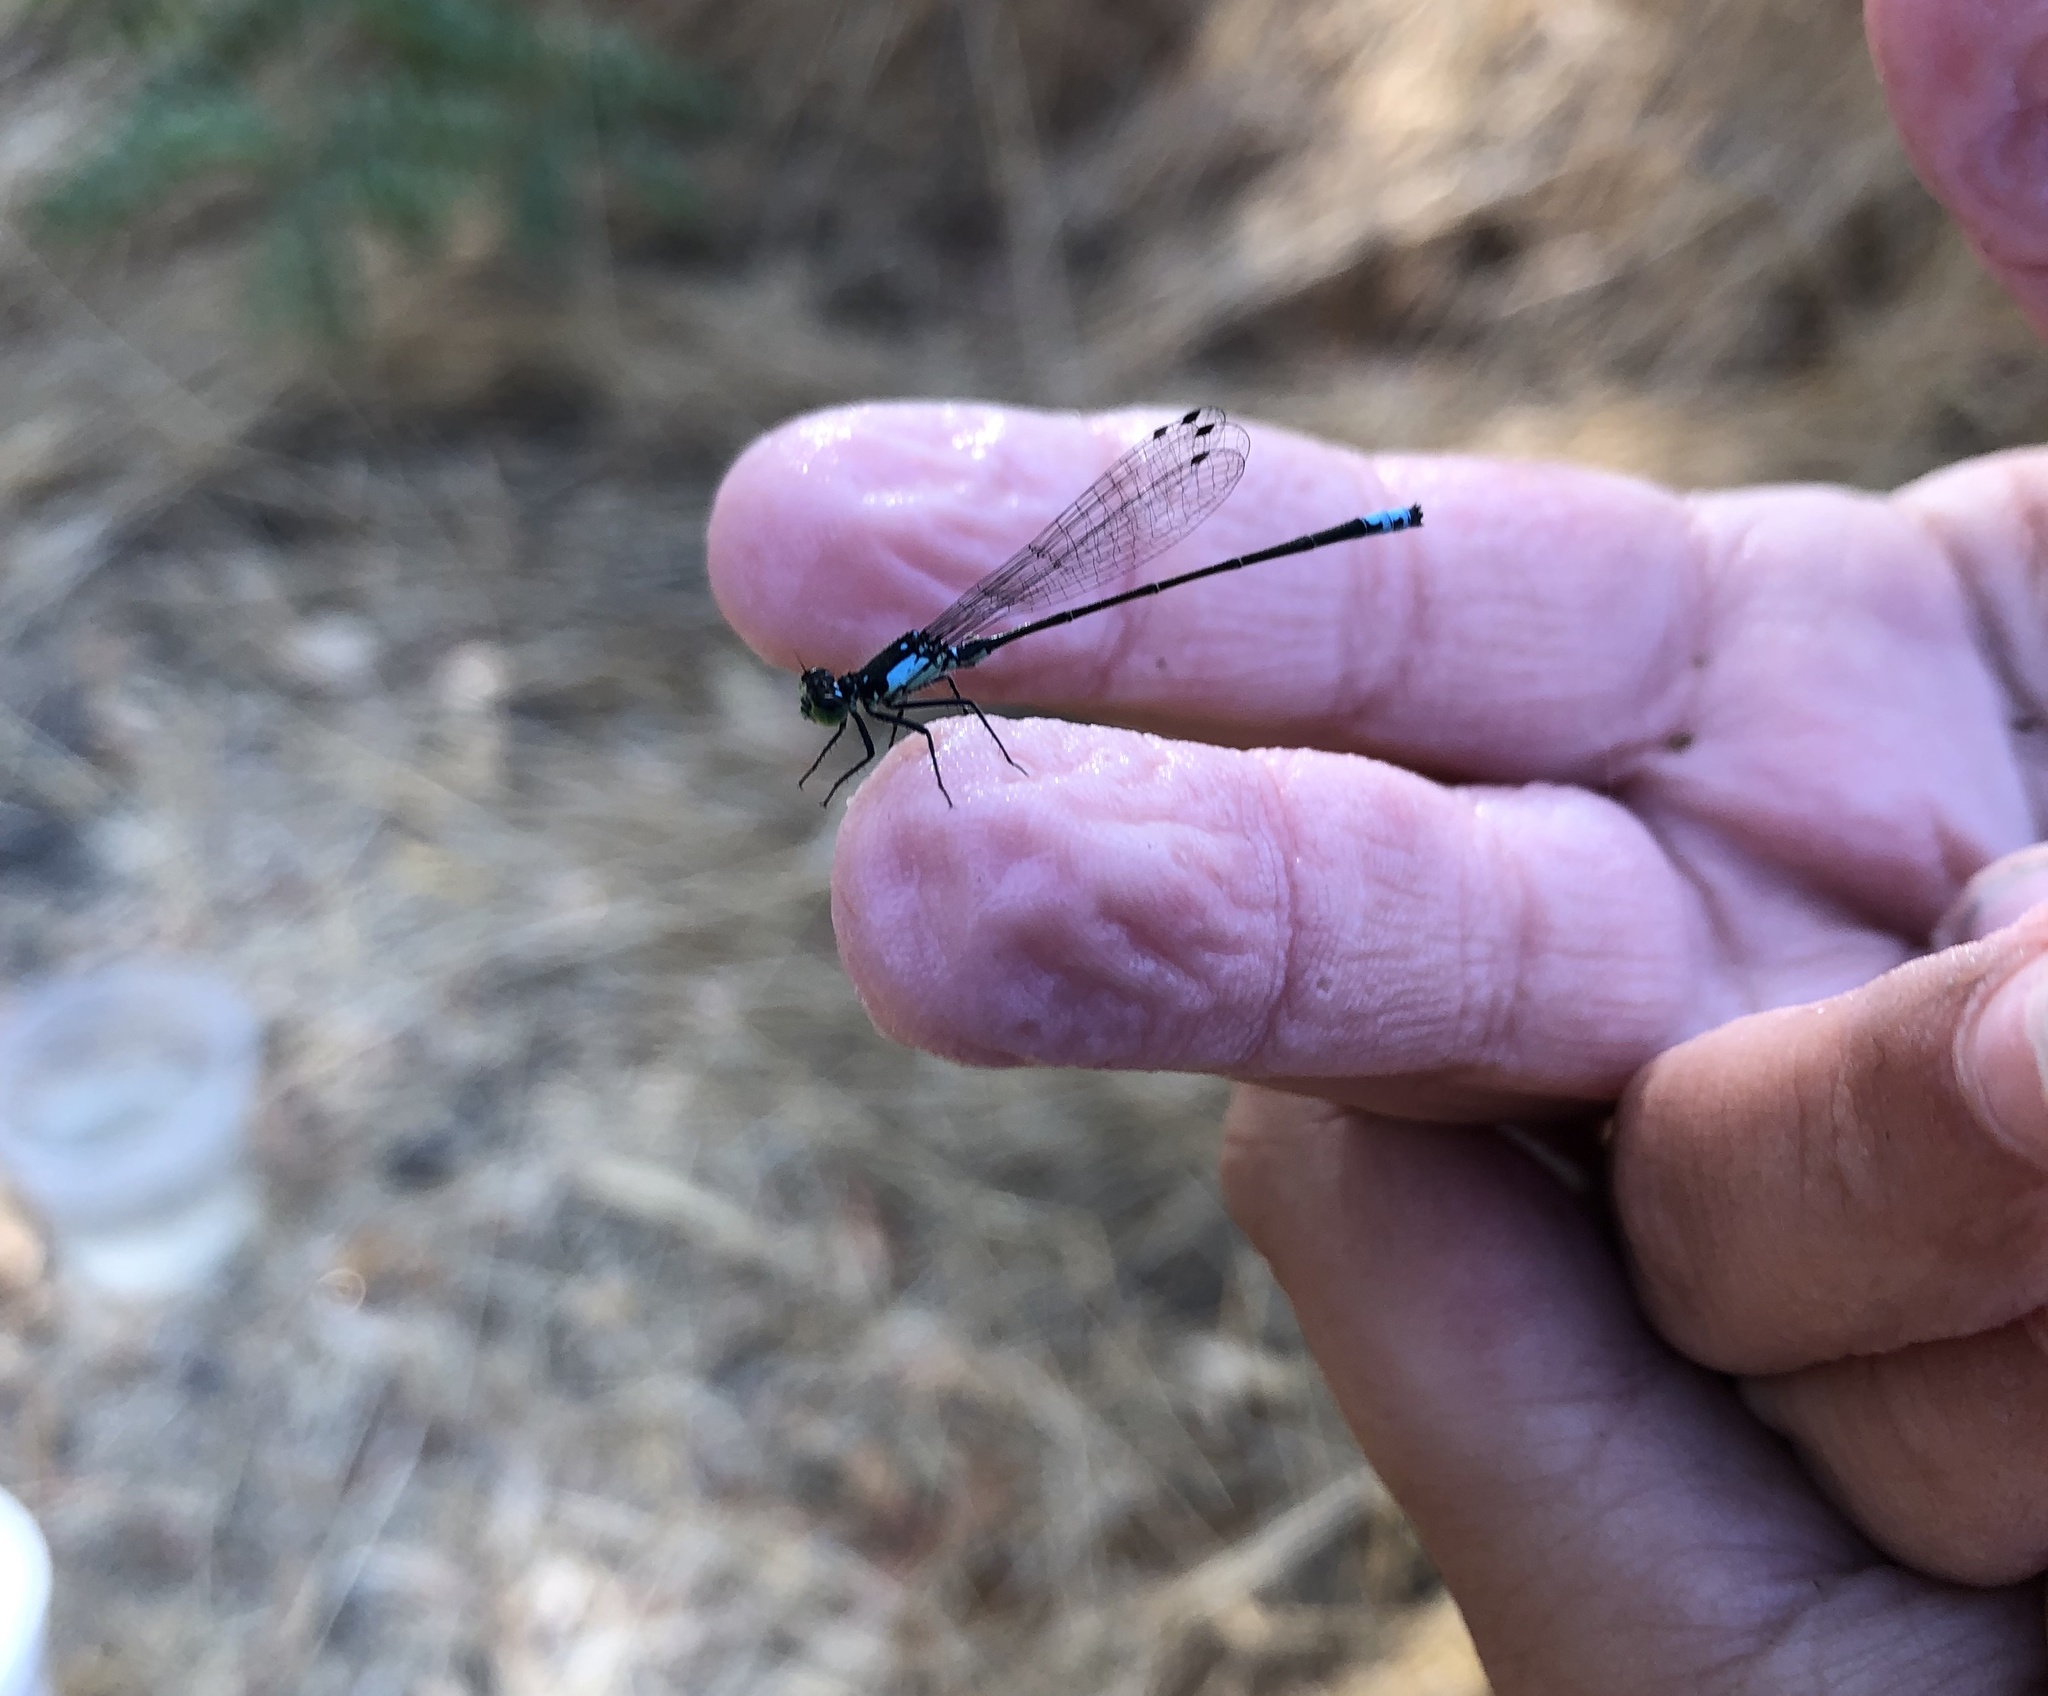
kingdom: Animalia
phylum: Arthropoda
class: Insecta
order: Odonata
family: Coenagrionidae
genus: Ischnura
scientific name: Ischnura cervula
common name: Pacific forktail
